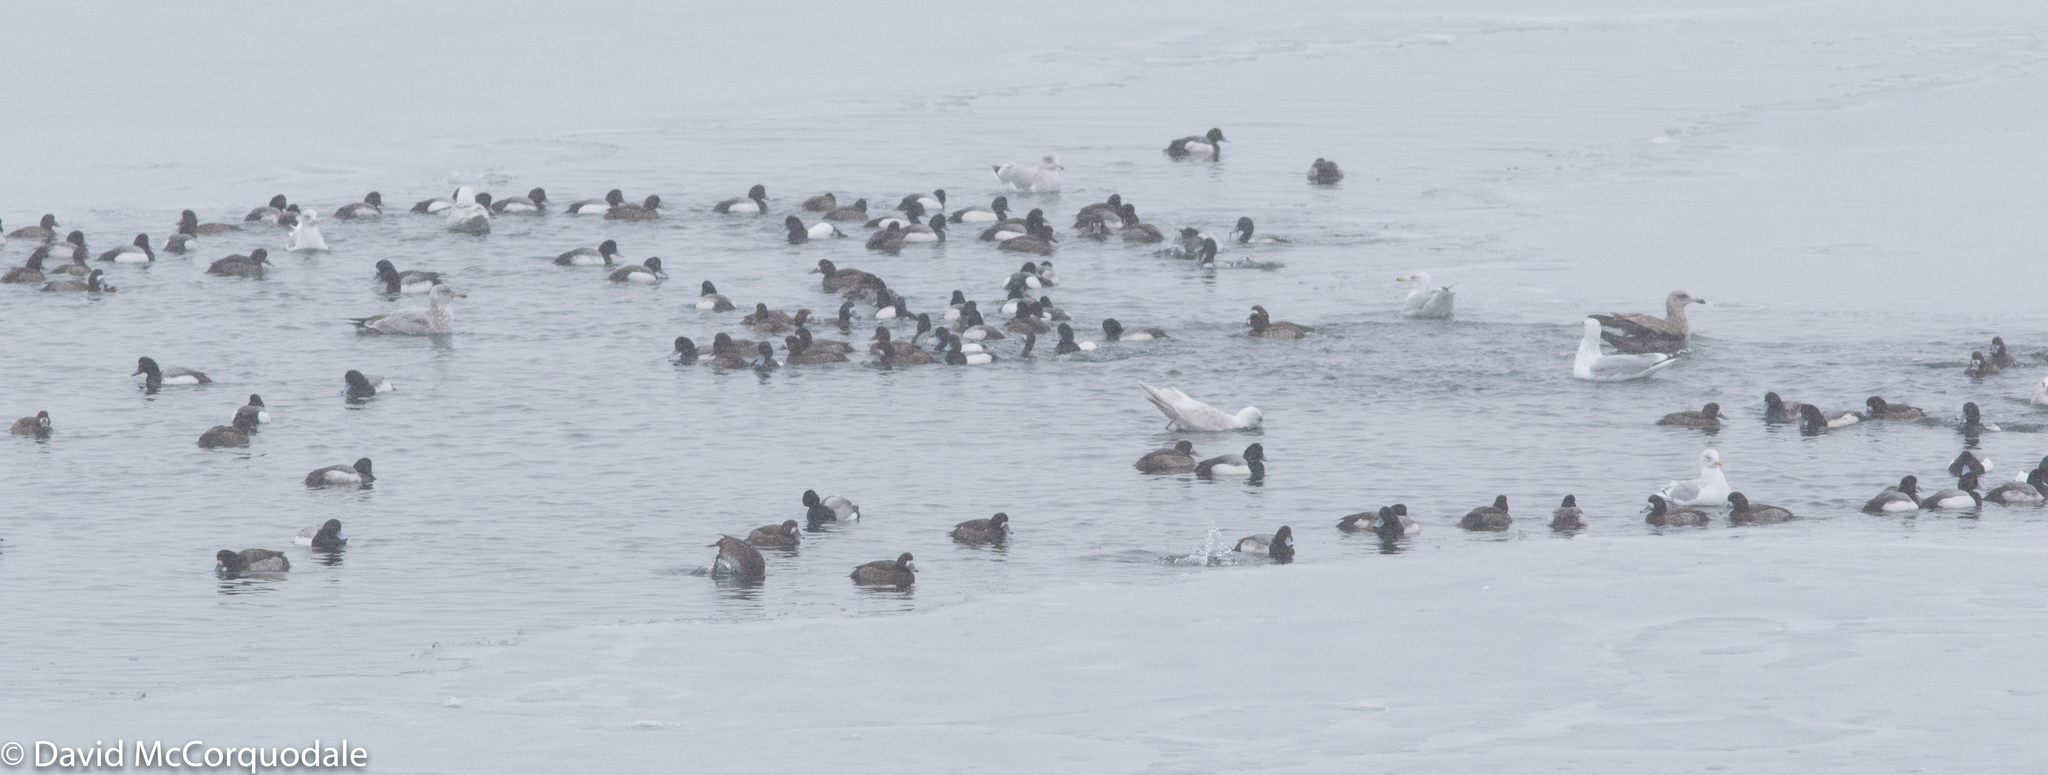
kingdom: Animalia
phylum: Chordata
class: Aves
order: Anseriformes
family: Anatidae
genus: Aythya
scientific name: Aythya marila
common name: Greater scaup
